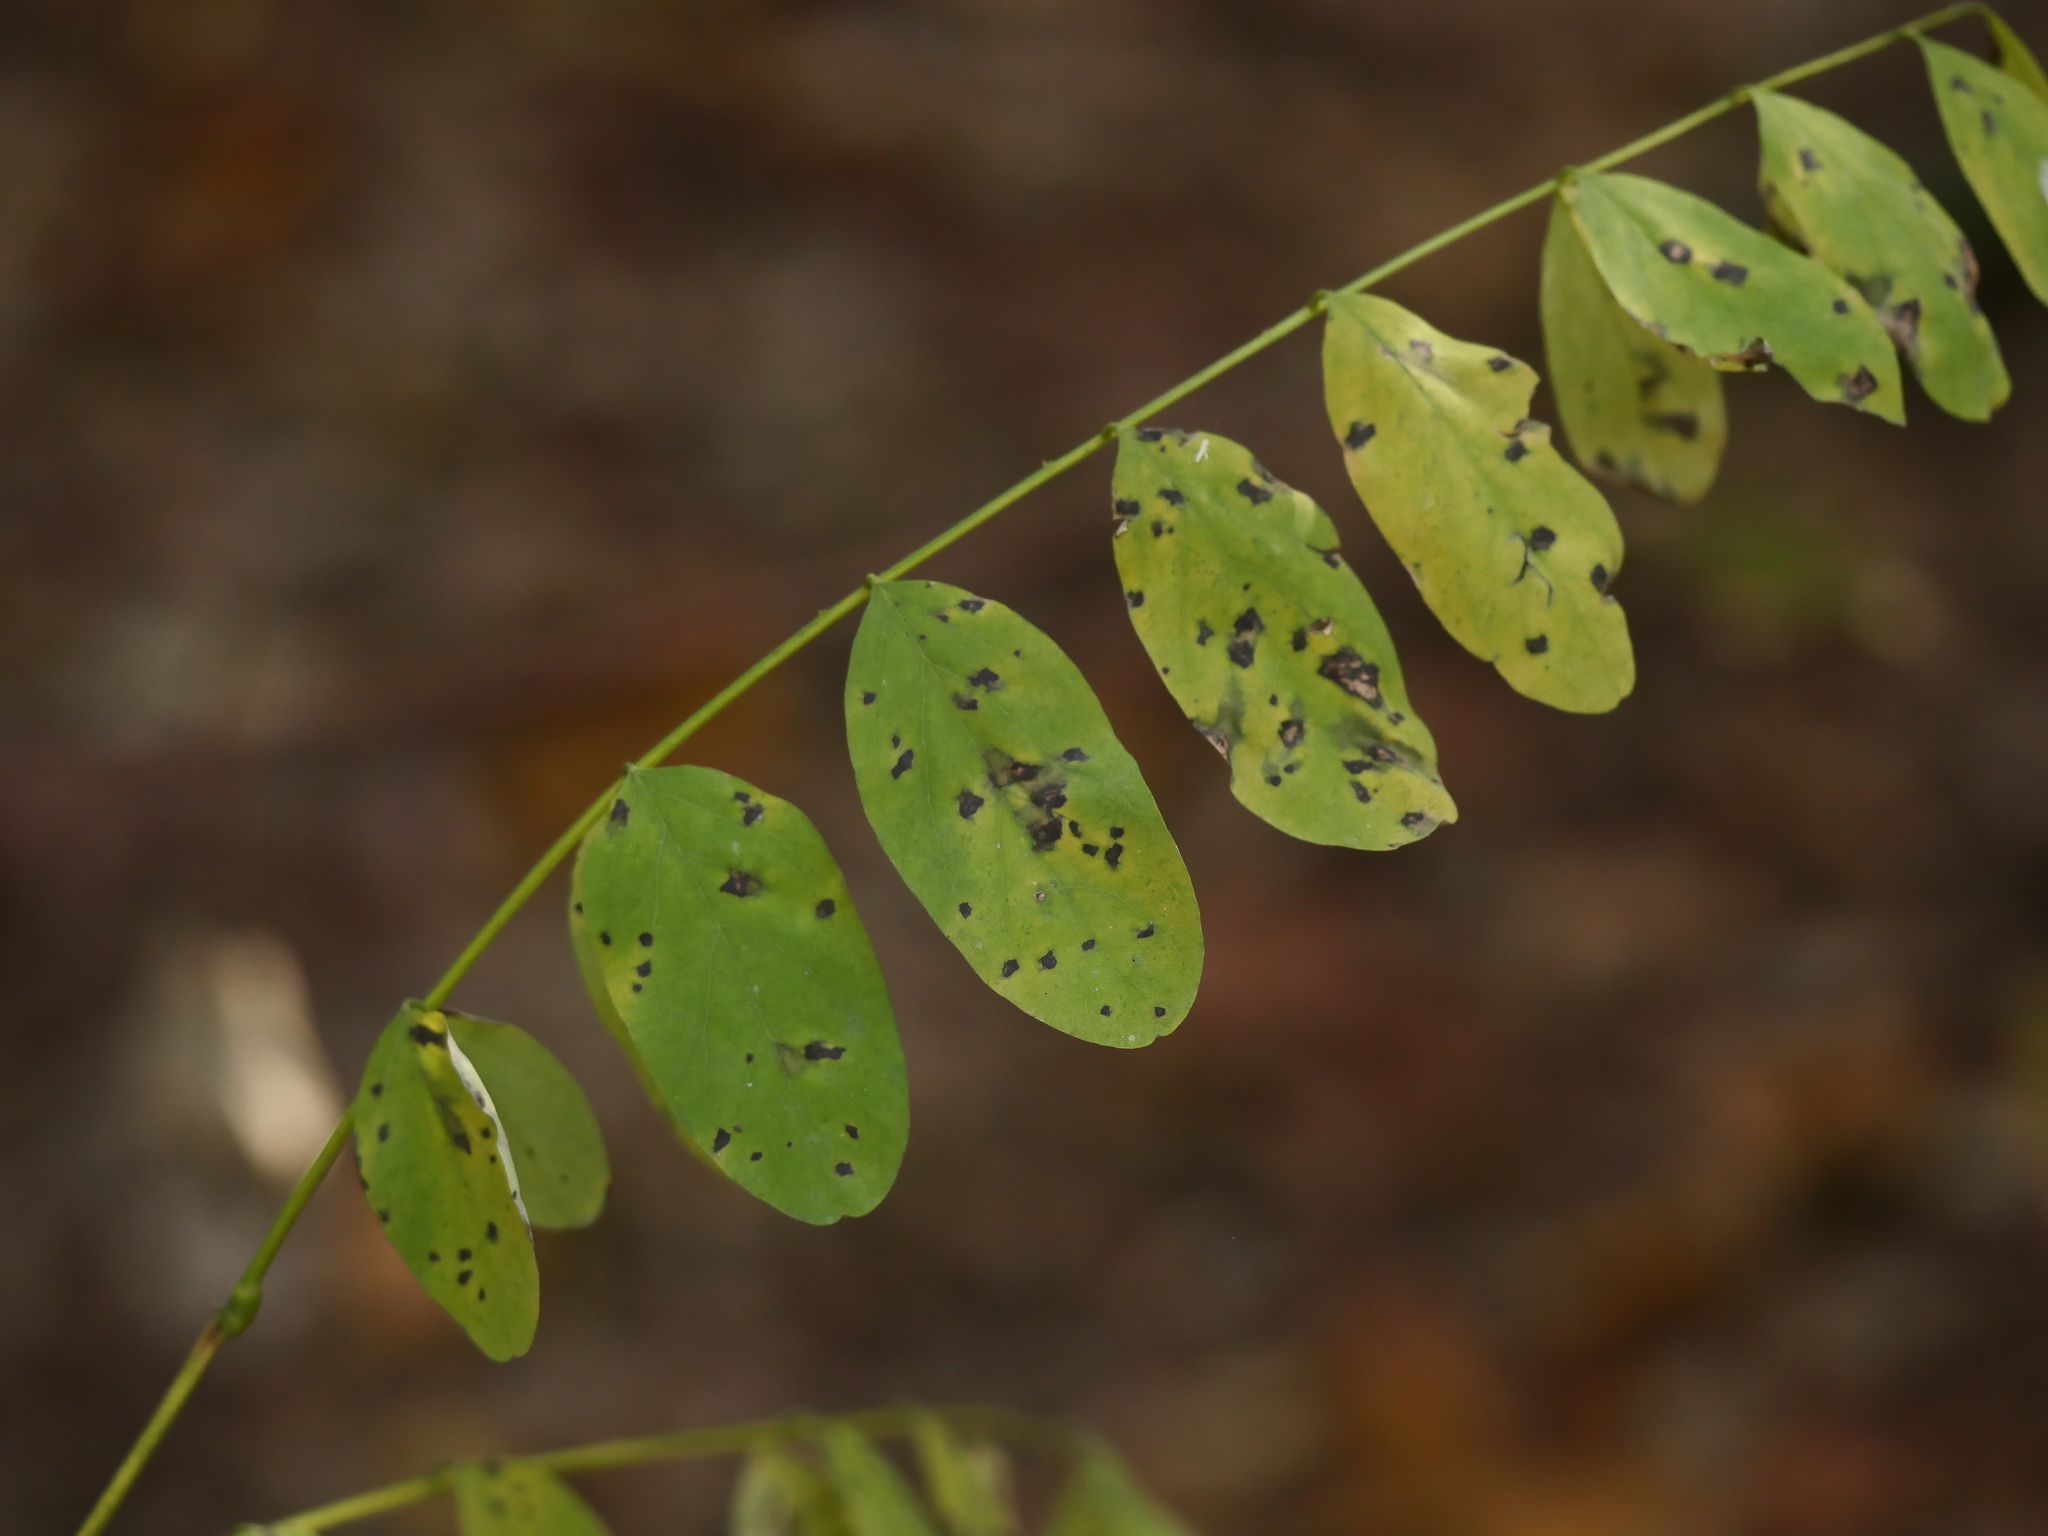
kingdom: Plantae
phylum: Tracheophyta
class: Magnoliopsida
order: Fabales
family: Fabaceae
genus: Robinia
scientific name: Robinia pseudoacacia
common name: Black locust
